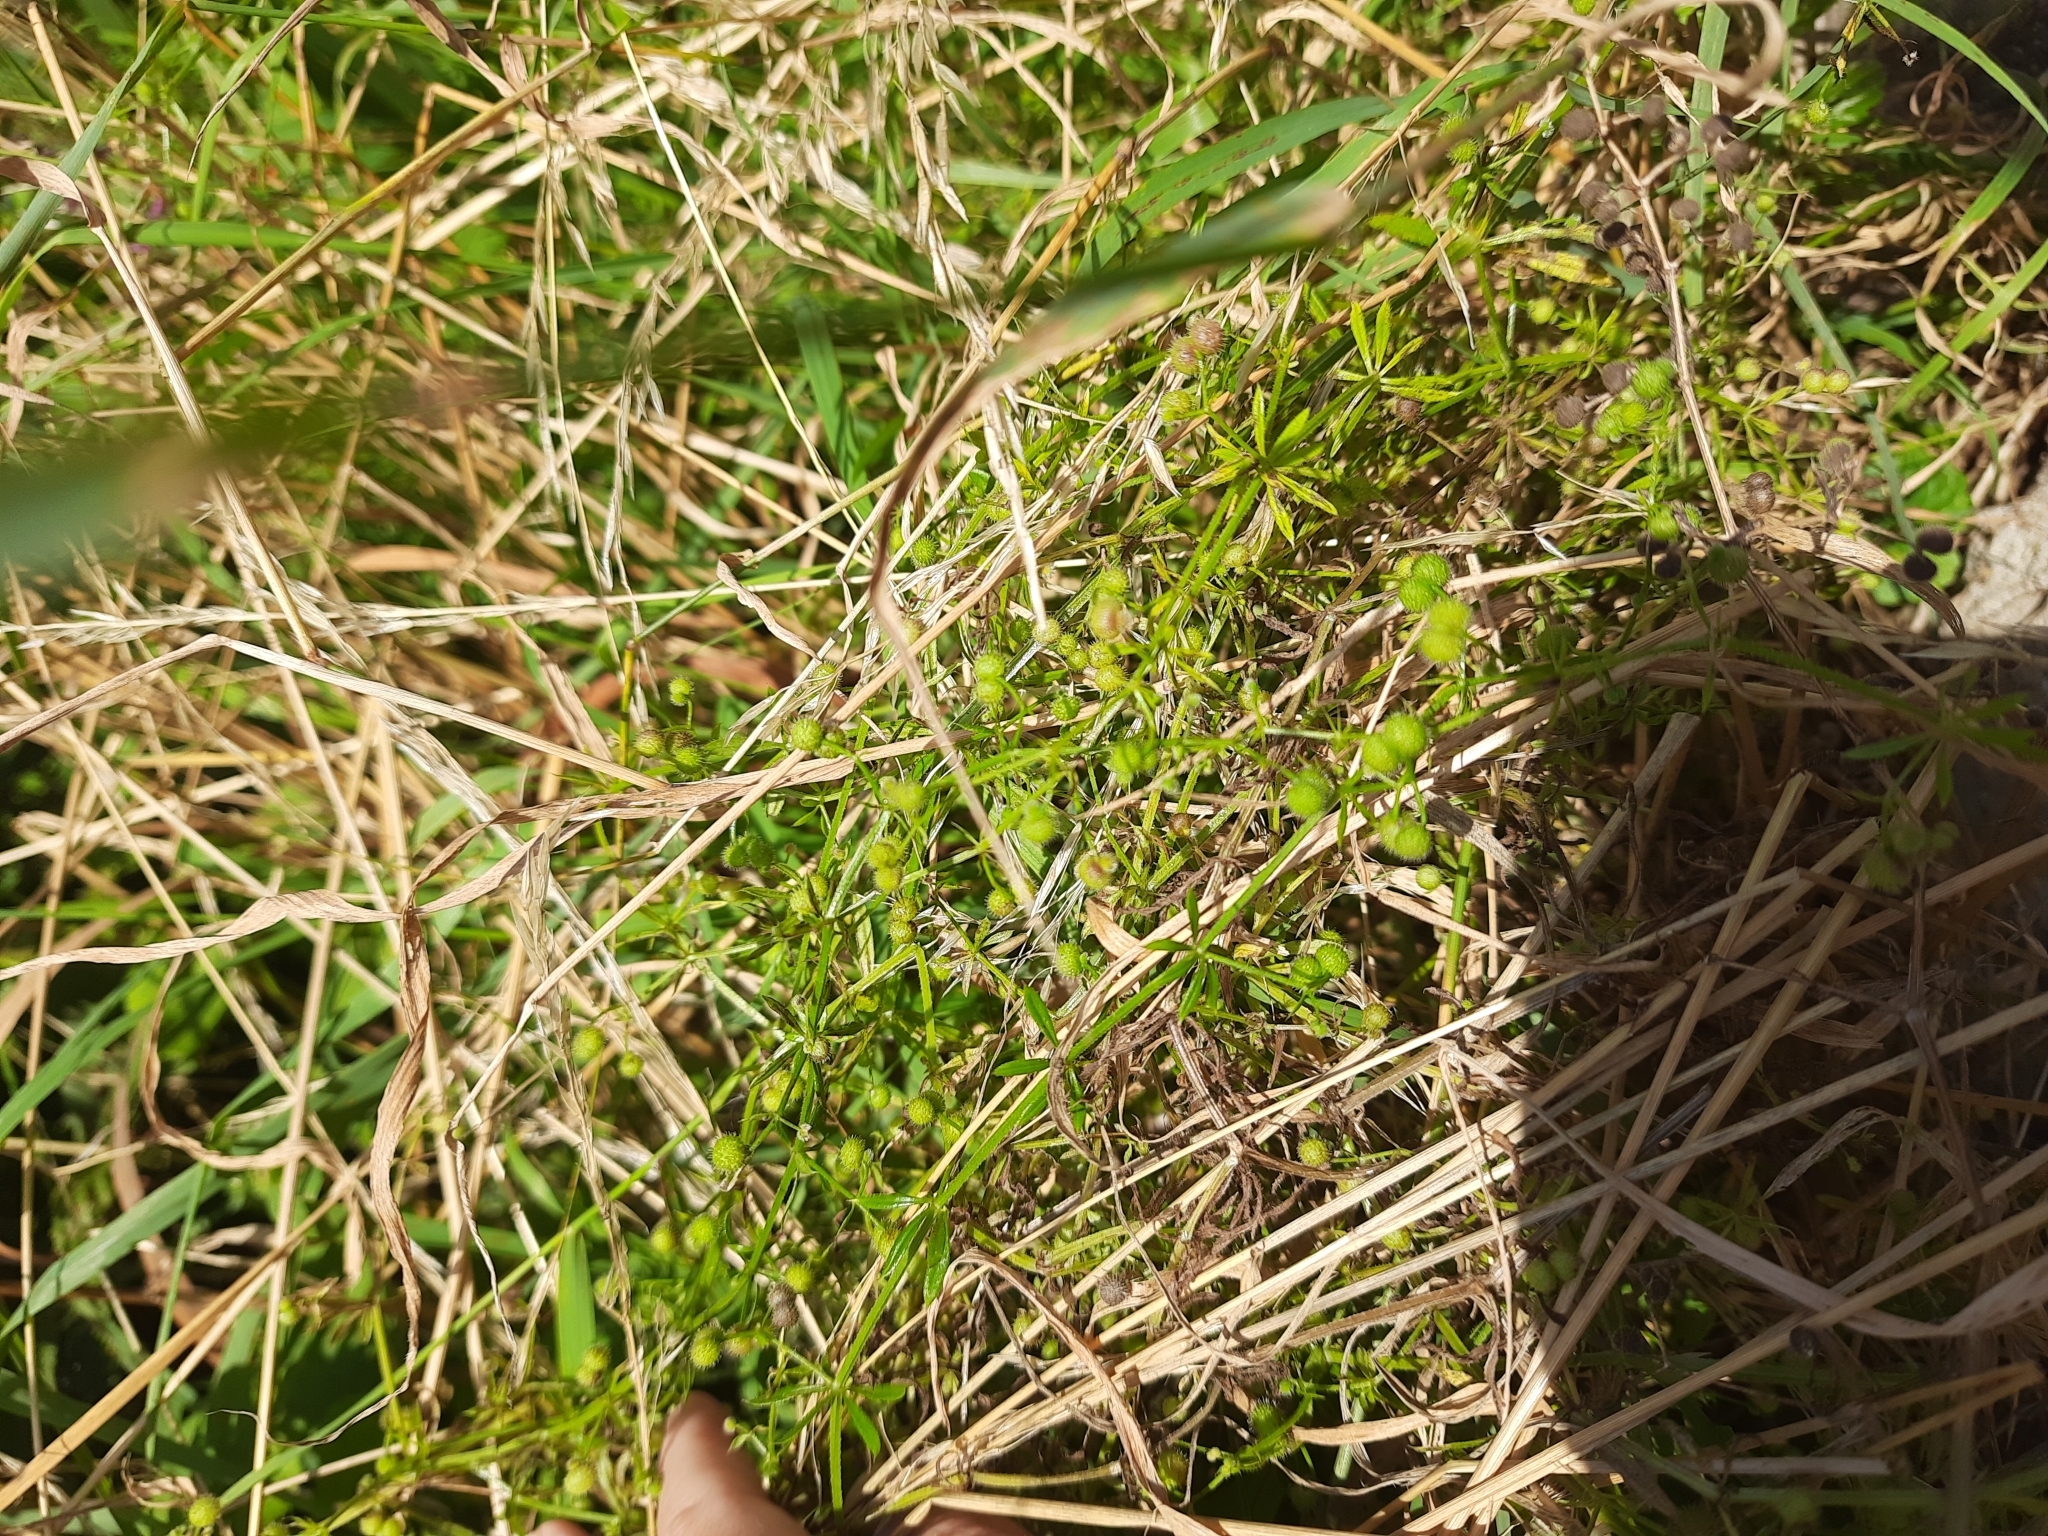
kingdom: Plantae
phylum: Tracheophyta
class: Magnoliopsida
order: Gentianales
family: Rubiaceae
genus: Galium
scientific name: Galium aparine
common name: Cleavers
